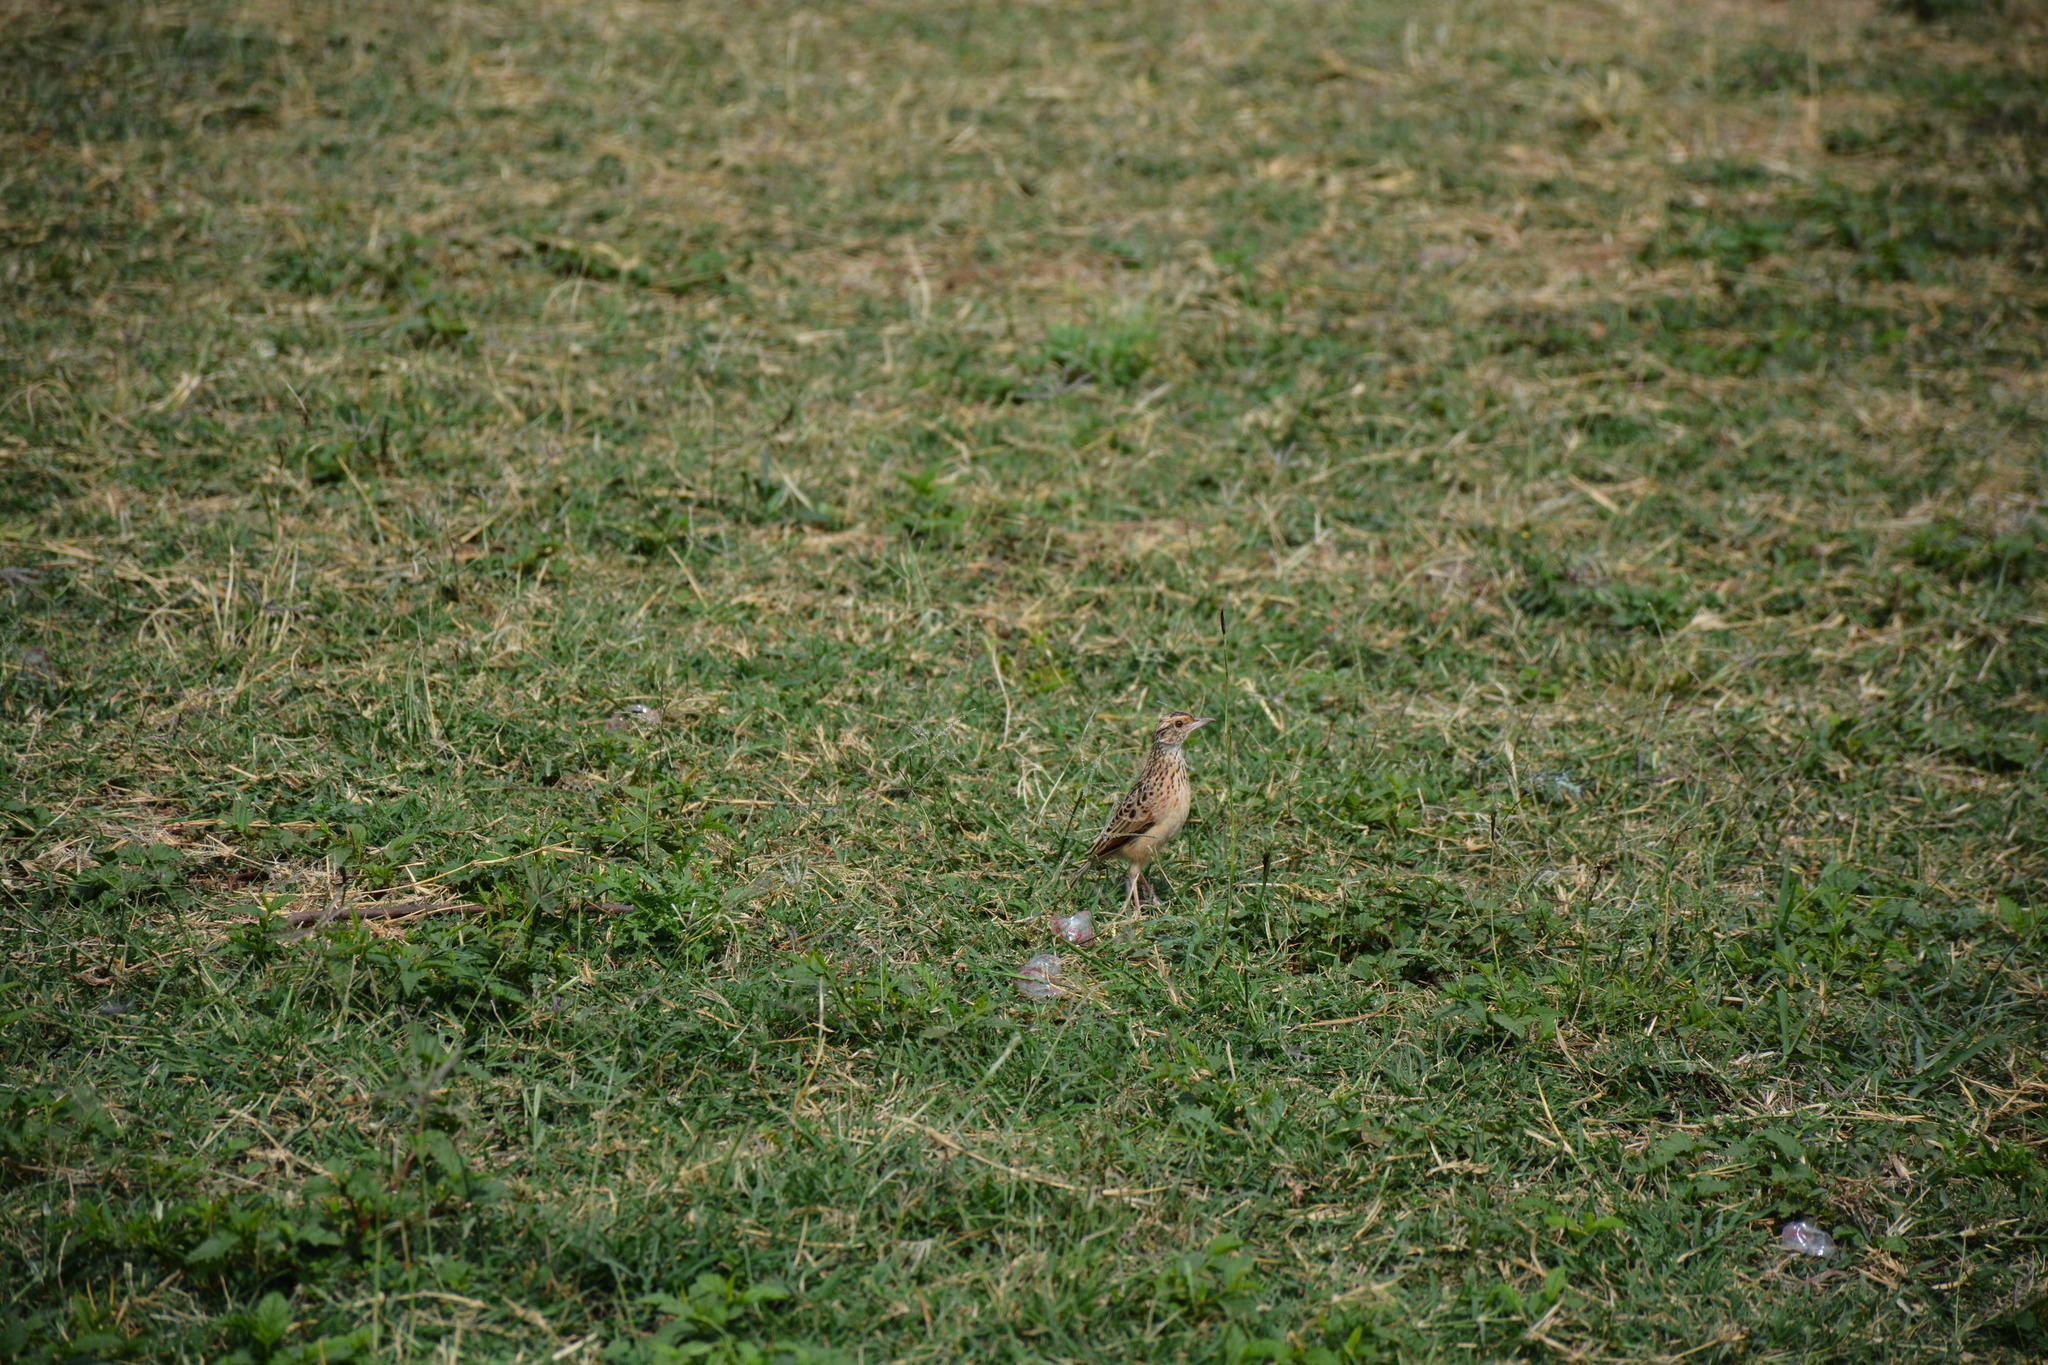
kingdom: Animalia
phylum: Chordata
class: Aves
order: Passeriformes
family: Alaudidae
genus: Mirafra
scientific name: Mirafra africana
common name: Rufous-naped lark
